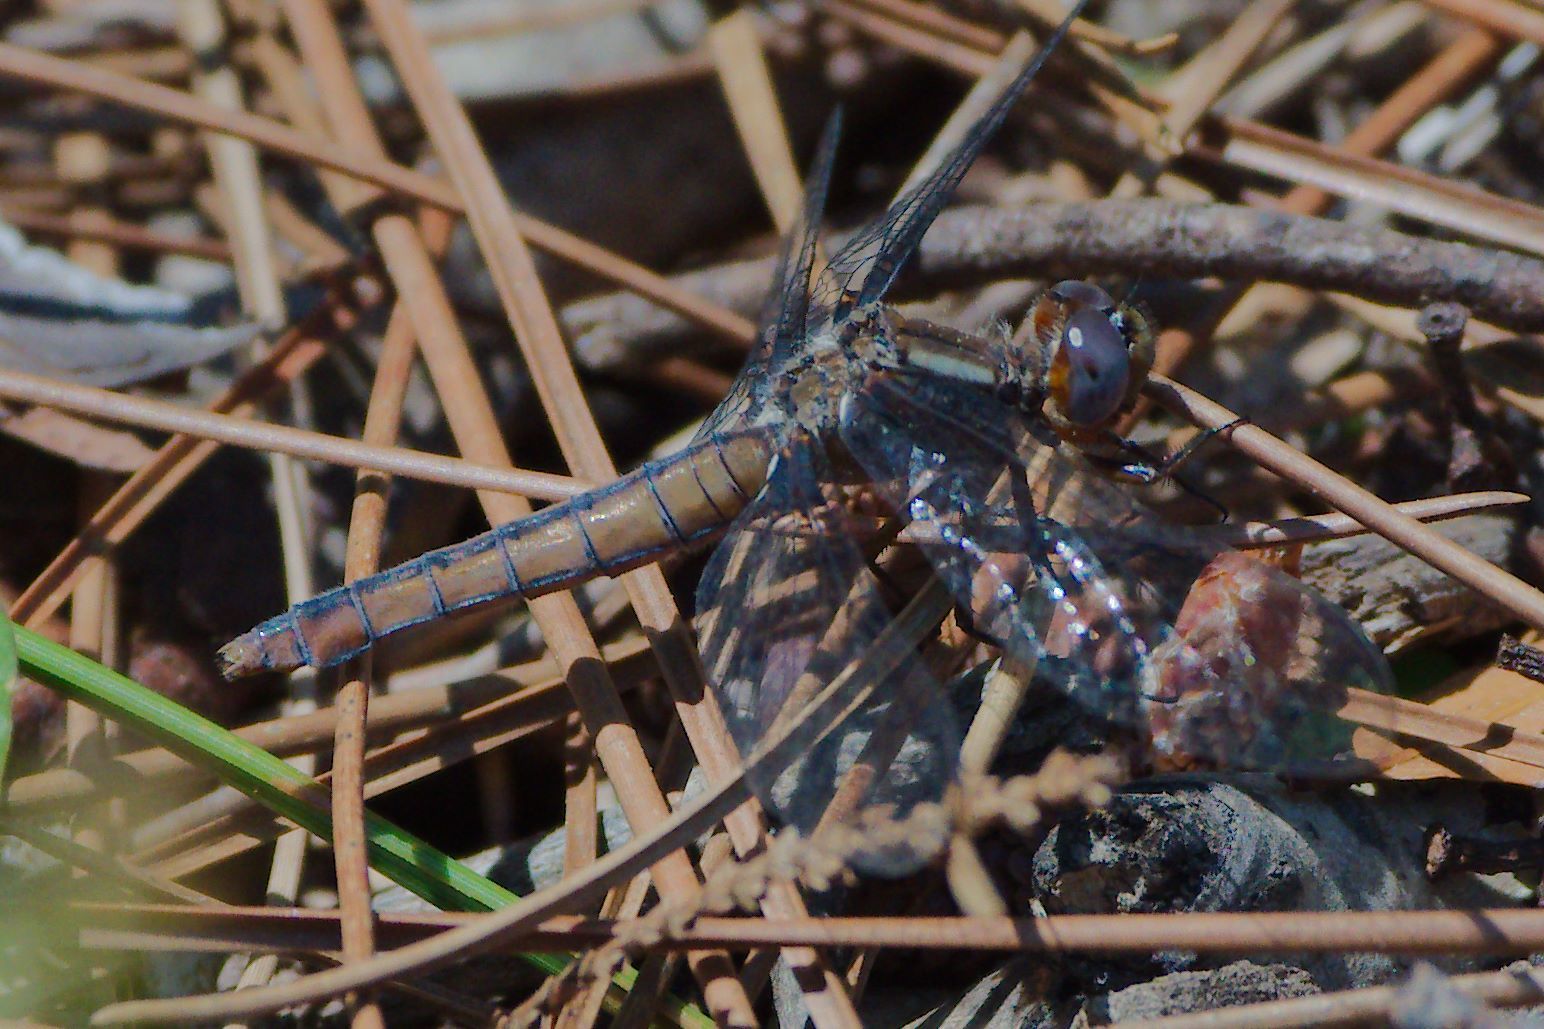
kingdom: Animalia
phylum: Arthropoda
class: Insecta
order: Odonata
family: Libellulidae
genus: Ladona
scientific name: Ladona deplanata
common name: Blue corporal
